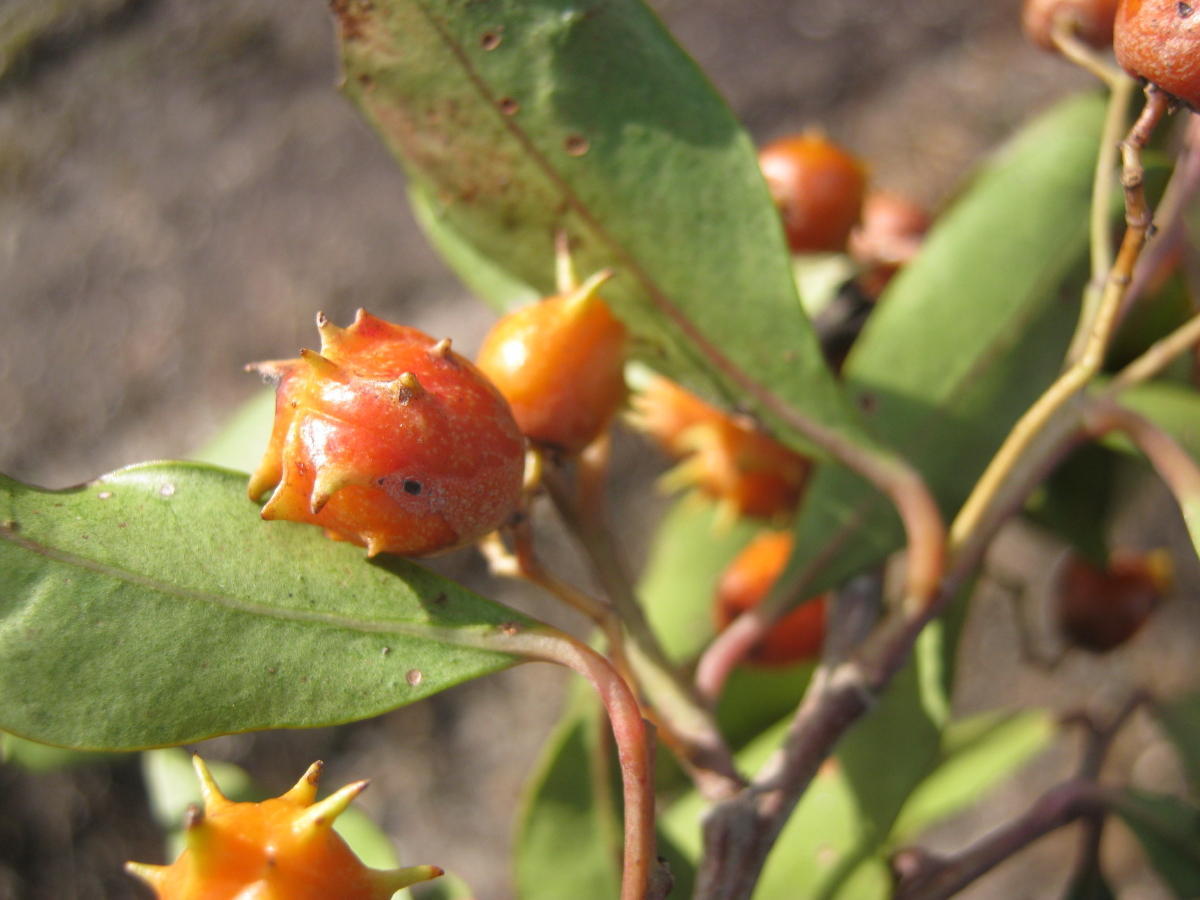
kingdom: Plantae
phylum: Tracheophyta
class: Magnoliopsida
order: Celastrales
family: Celastraceae
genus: Pterocelastrus
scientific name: Pterocelastrus rostratus
